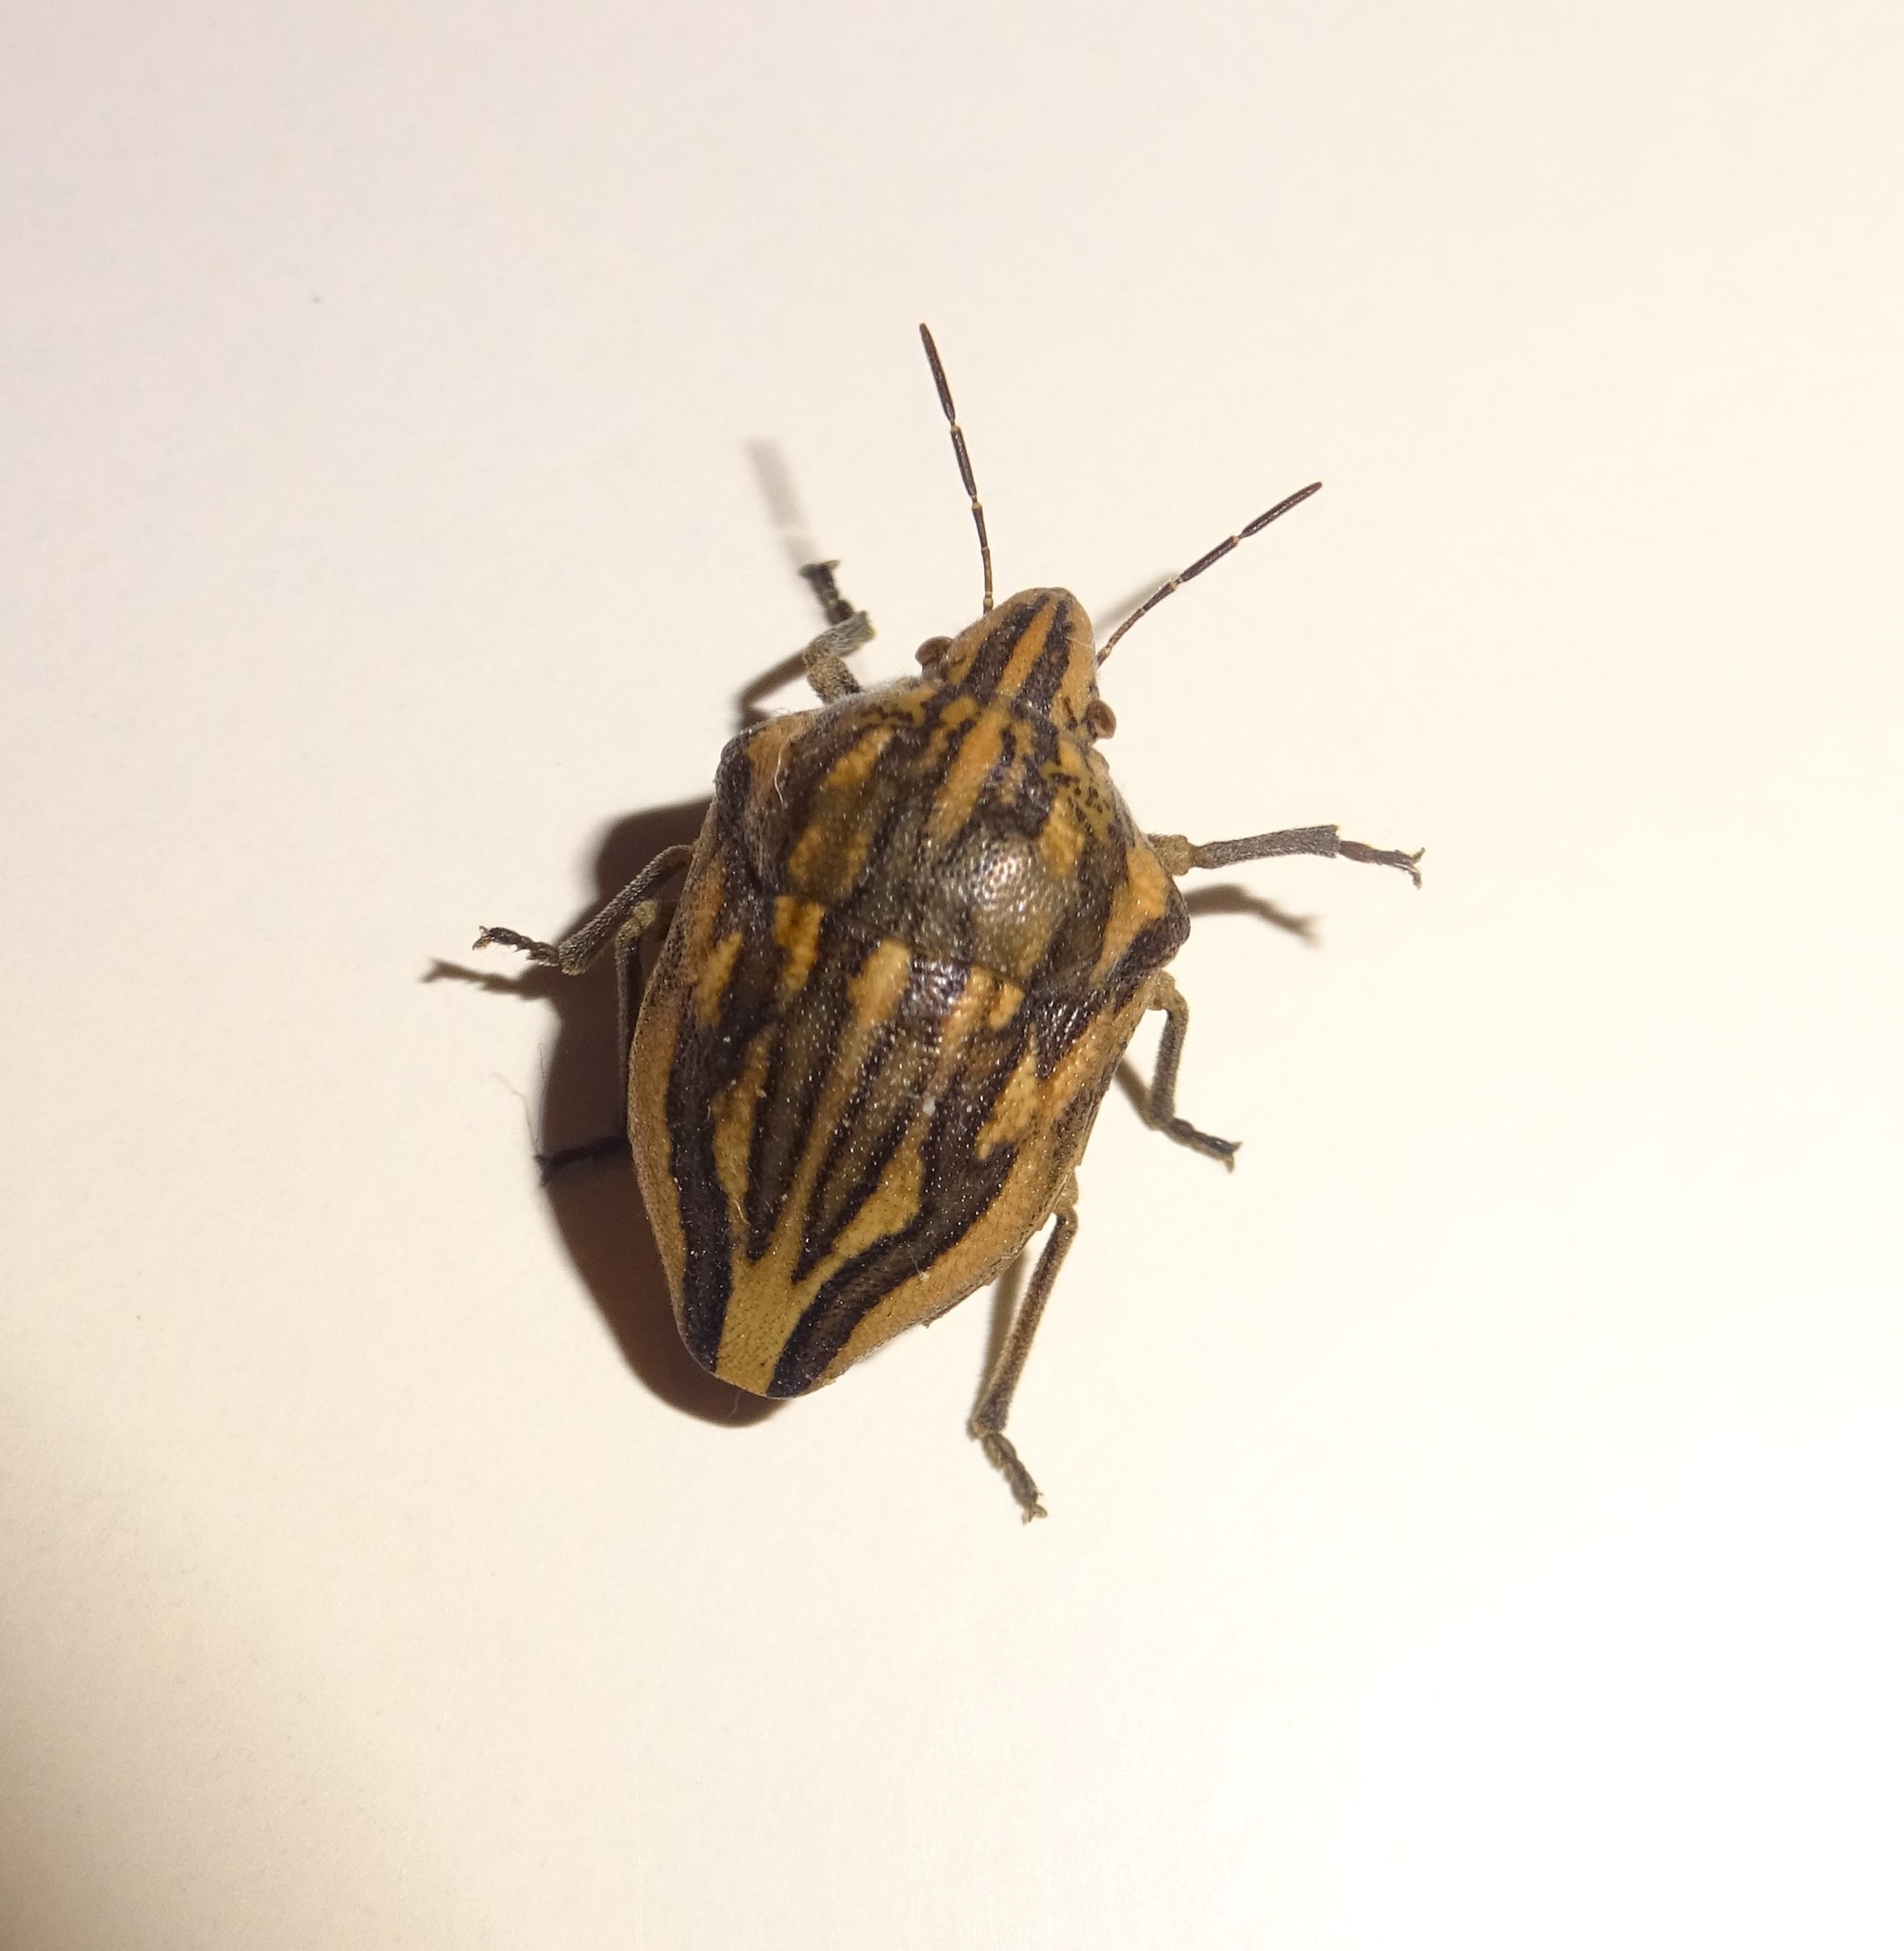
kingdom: Animalia
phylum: Arthropoda
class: Insecta
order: Hemiptera
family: Scutelleridae
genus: Odontotarsus
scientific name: Odontotarsus purpureolineatus
